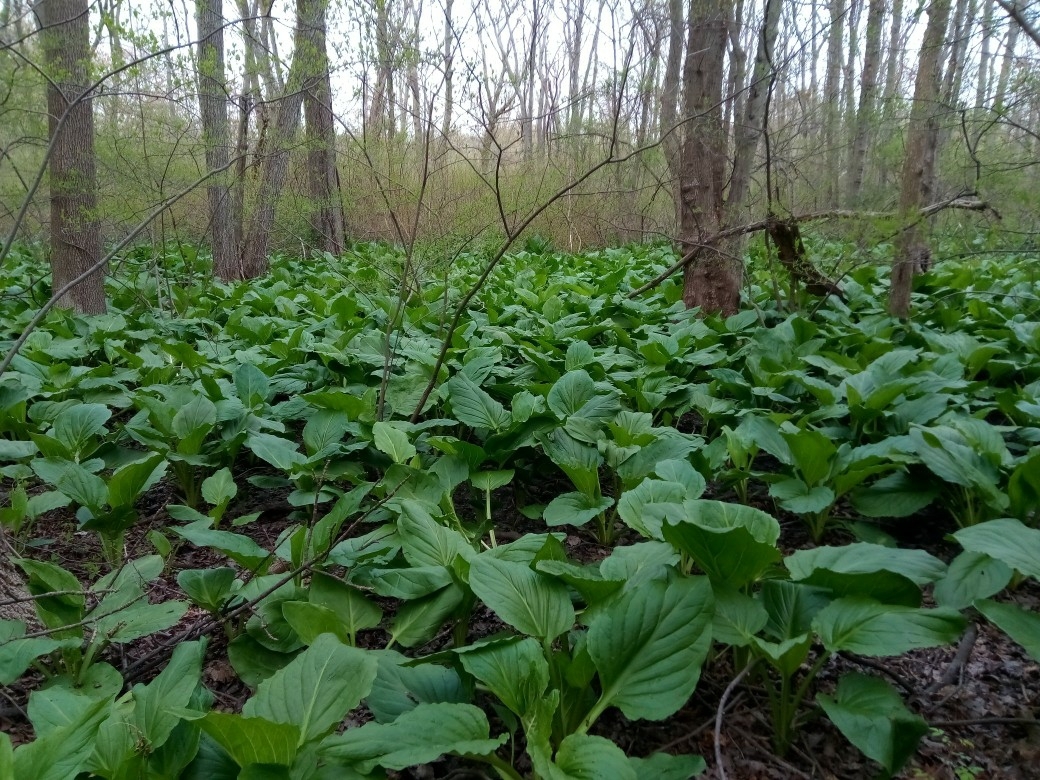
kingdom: Plantae
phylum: Tracheophyta
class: Liliopsida
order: Alismatales
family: Araceae
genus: Symplocarpus
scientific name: Symplocarpus foetidus
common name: Eastern skunk cabbage
